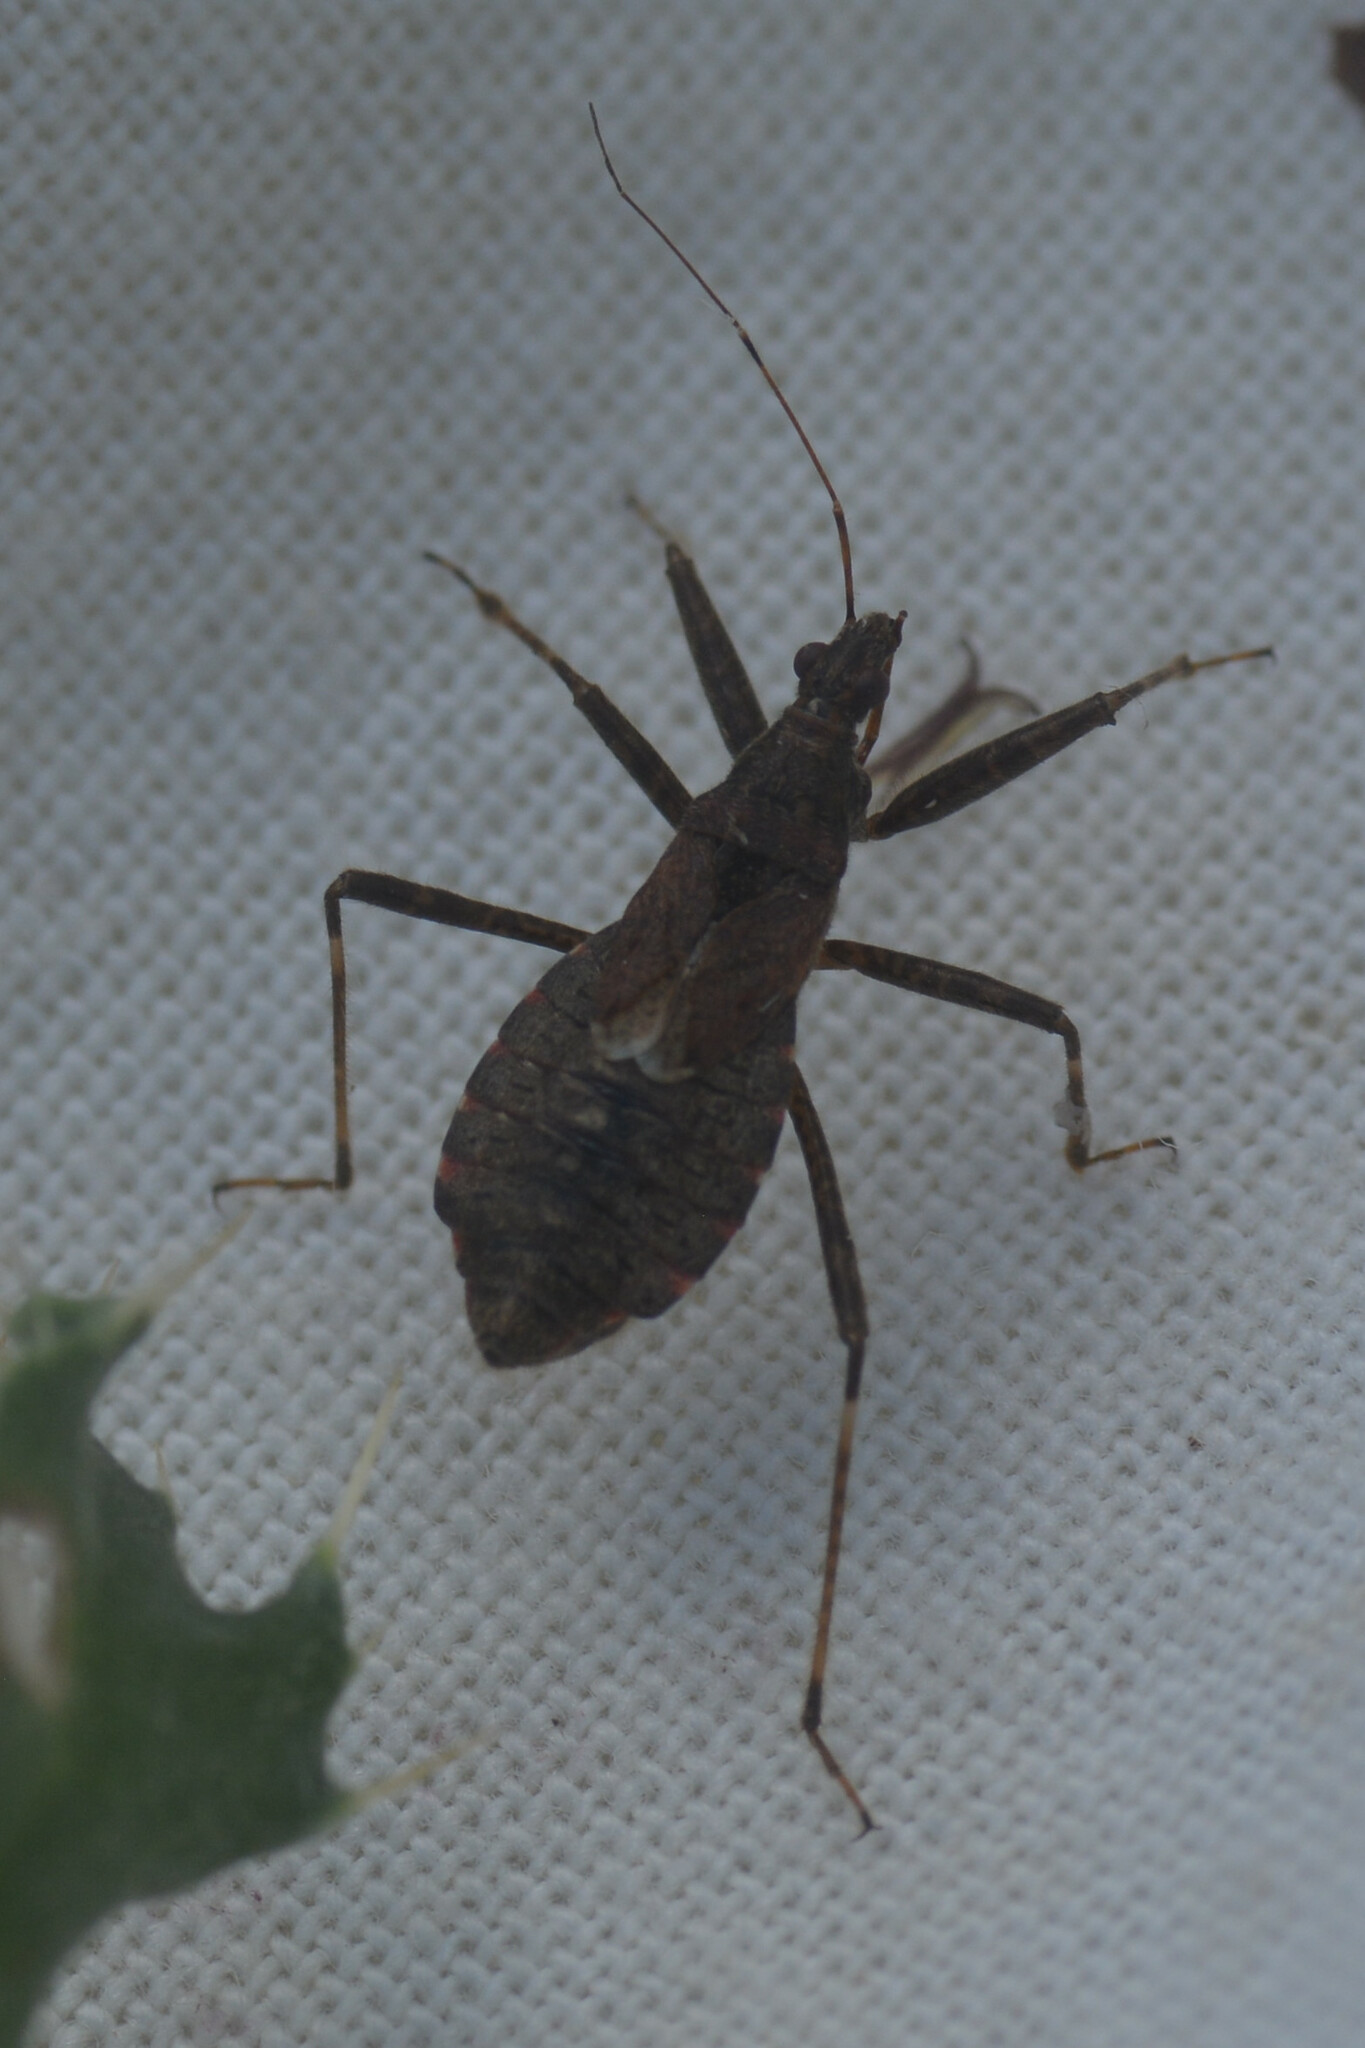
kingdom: Animalia
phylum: Arthropoda
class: Insecta
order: Hemiptera
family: Nabidae
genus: Himacerus
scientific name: Himacerus apterus
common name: Tree damsel bug
